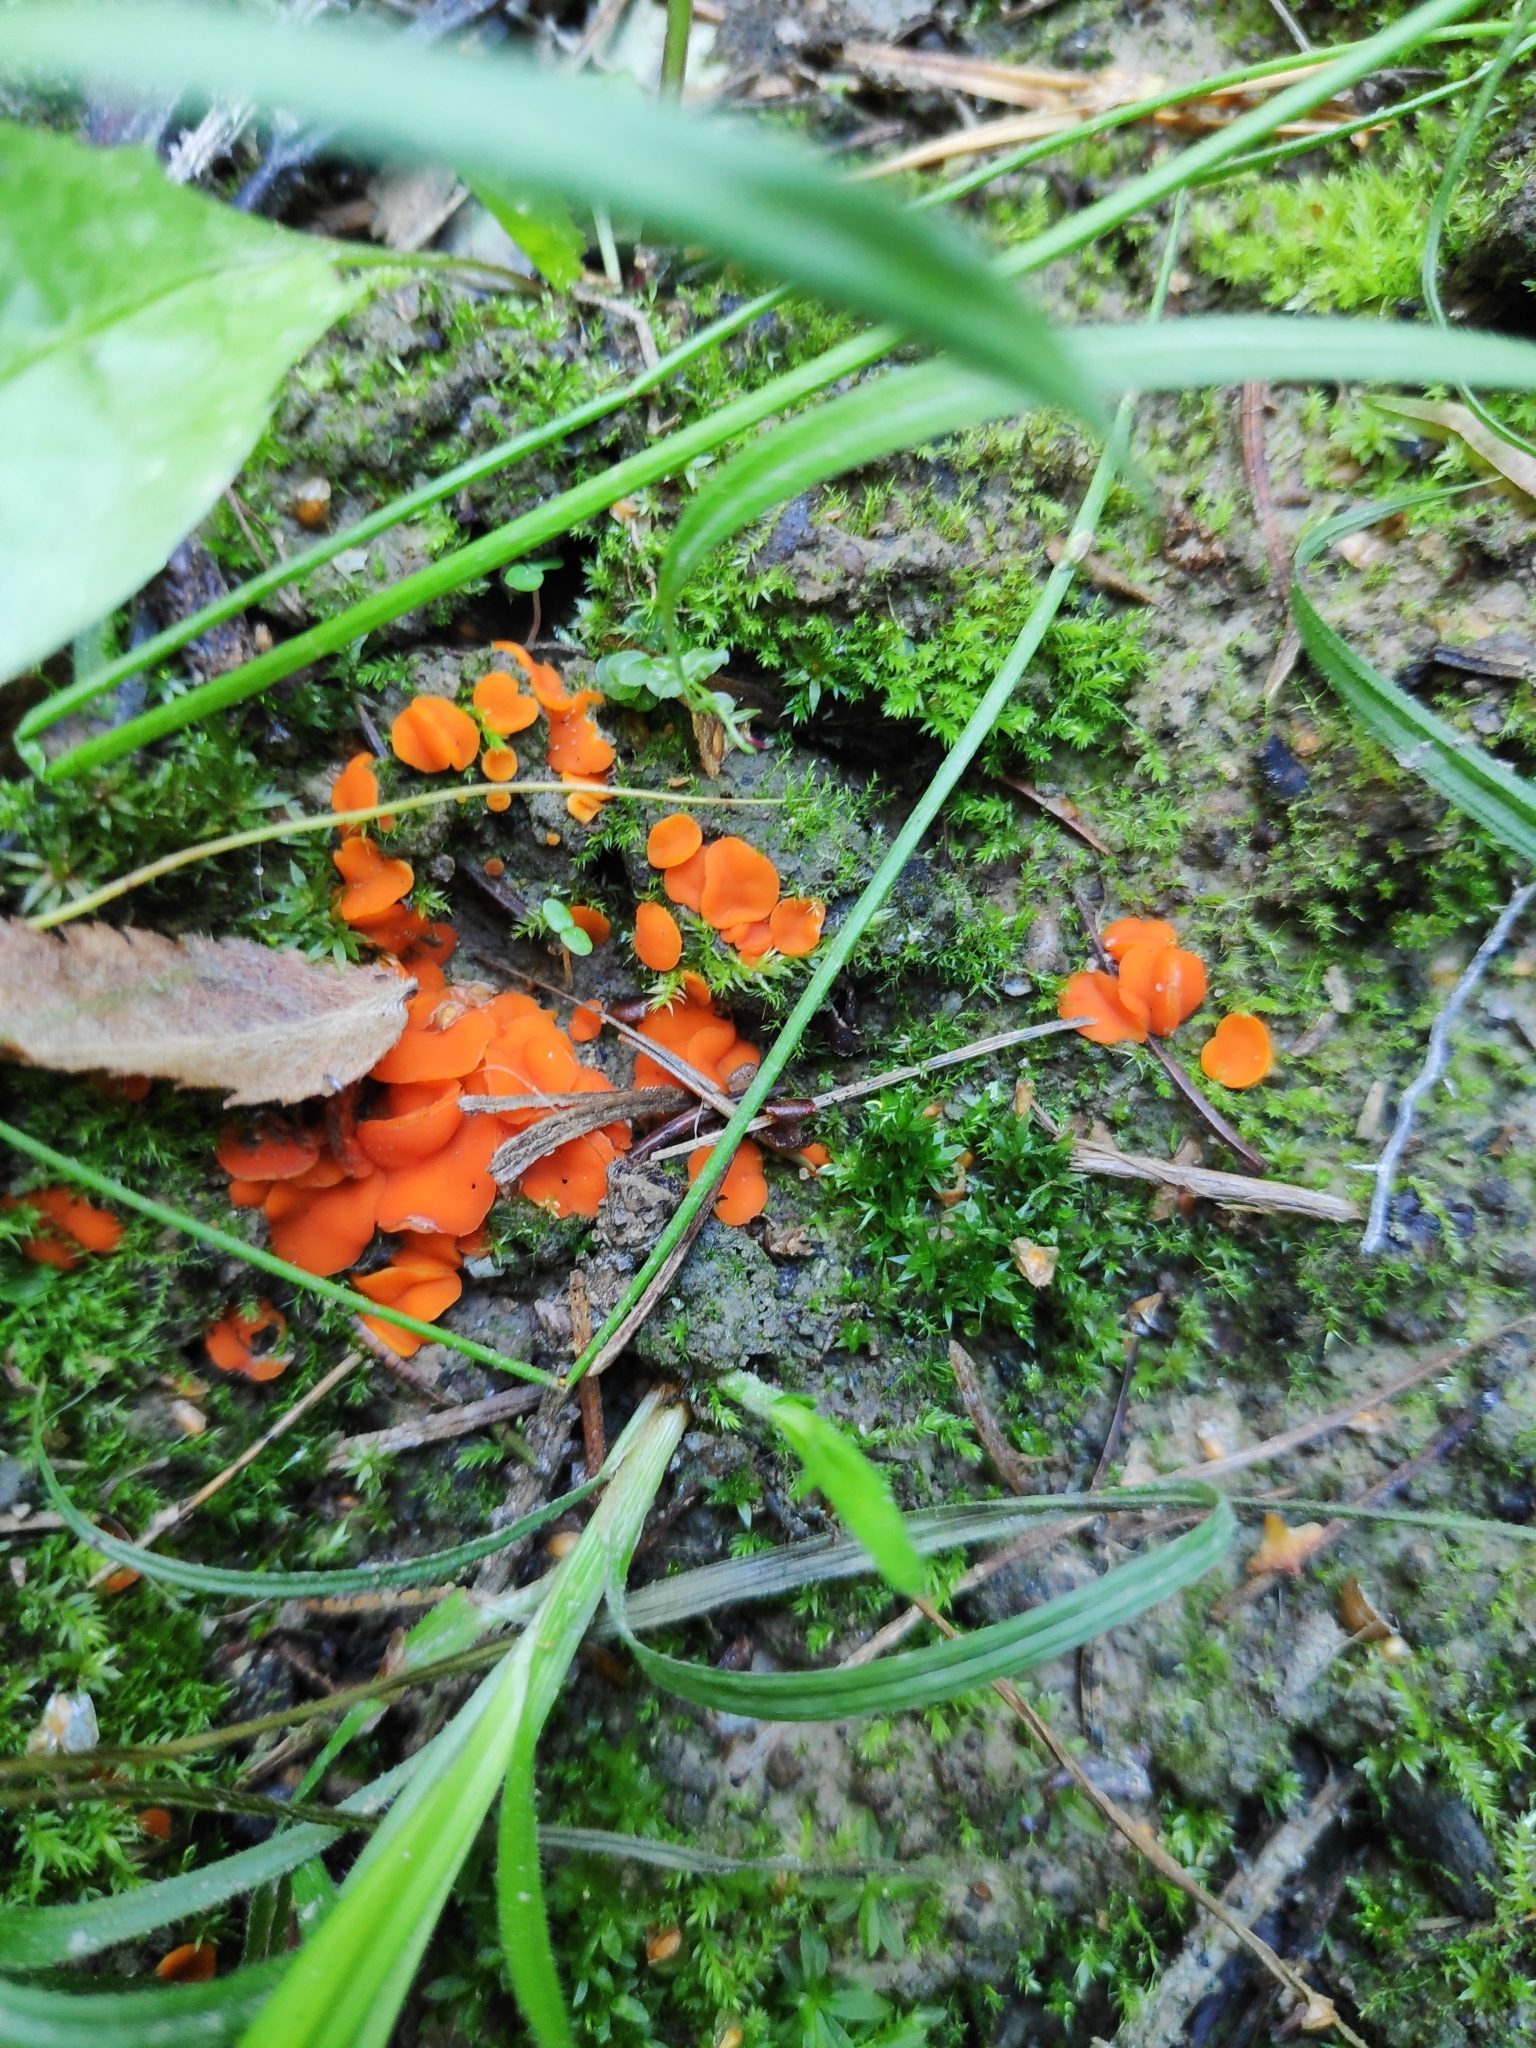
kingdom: Fungi
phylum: Ascomycota
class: Pezizomycetes
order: Pezizales
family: Pyronemataceae
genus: Aleuria
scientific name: Aleuria aurantia
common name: Orange peel fungus
